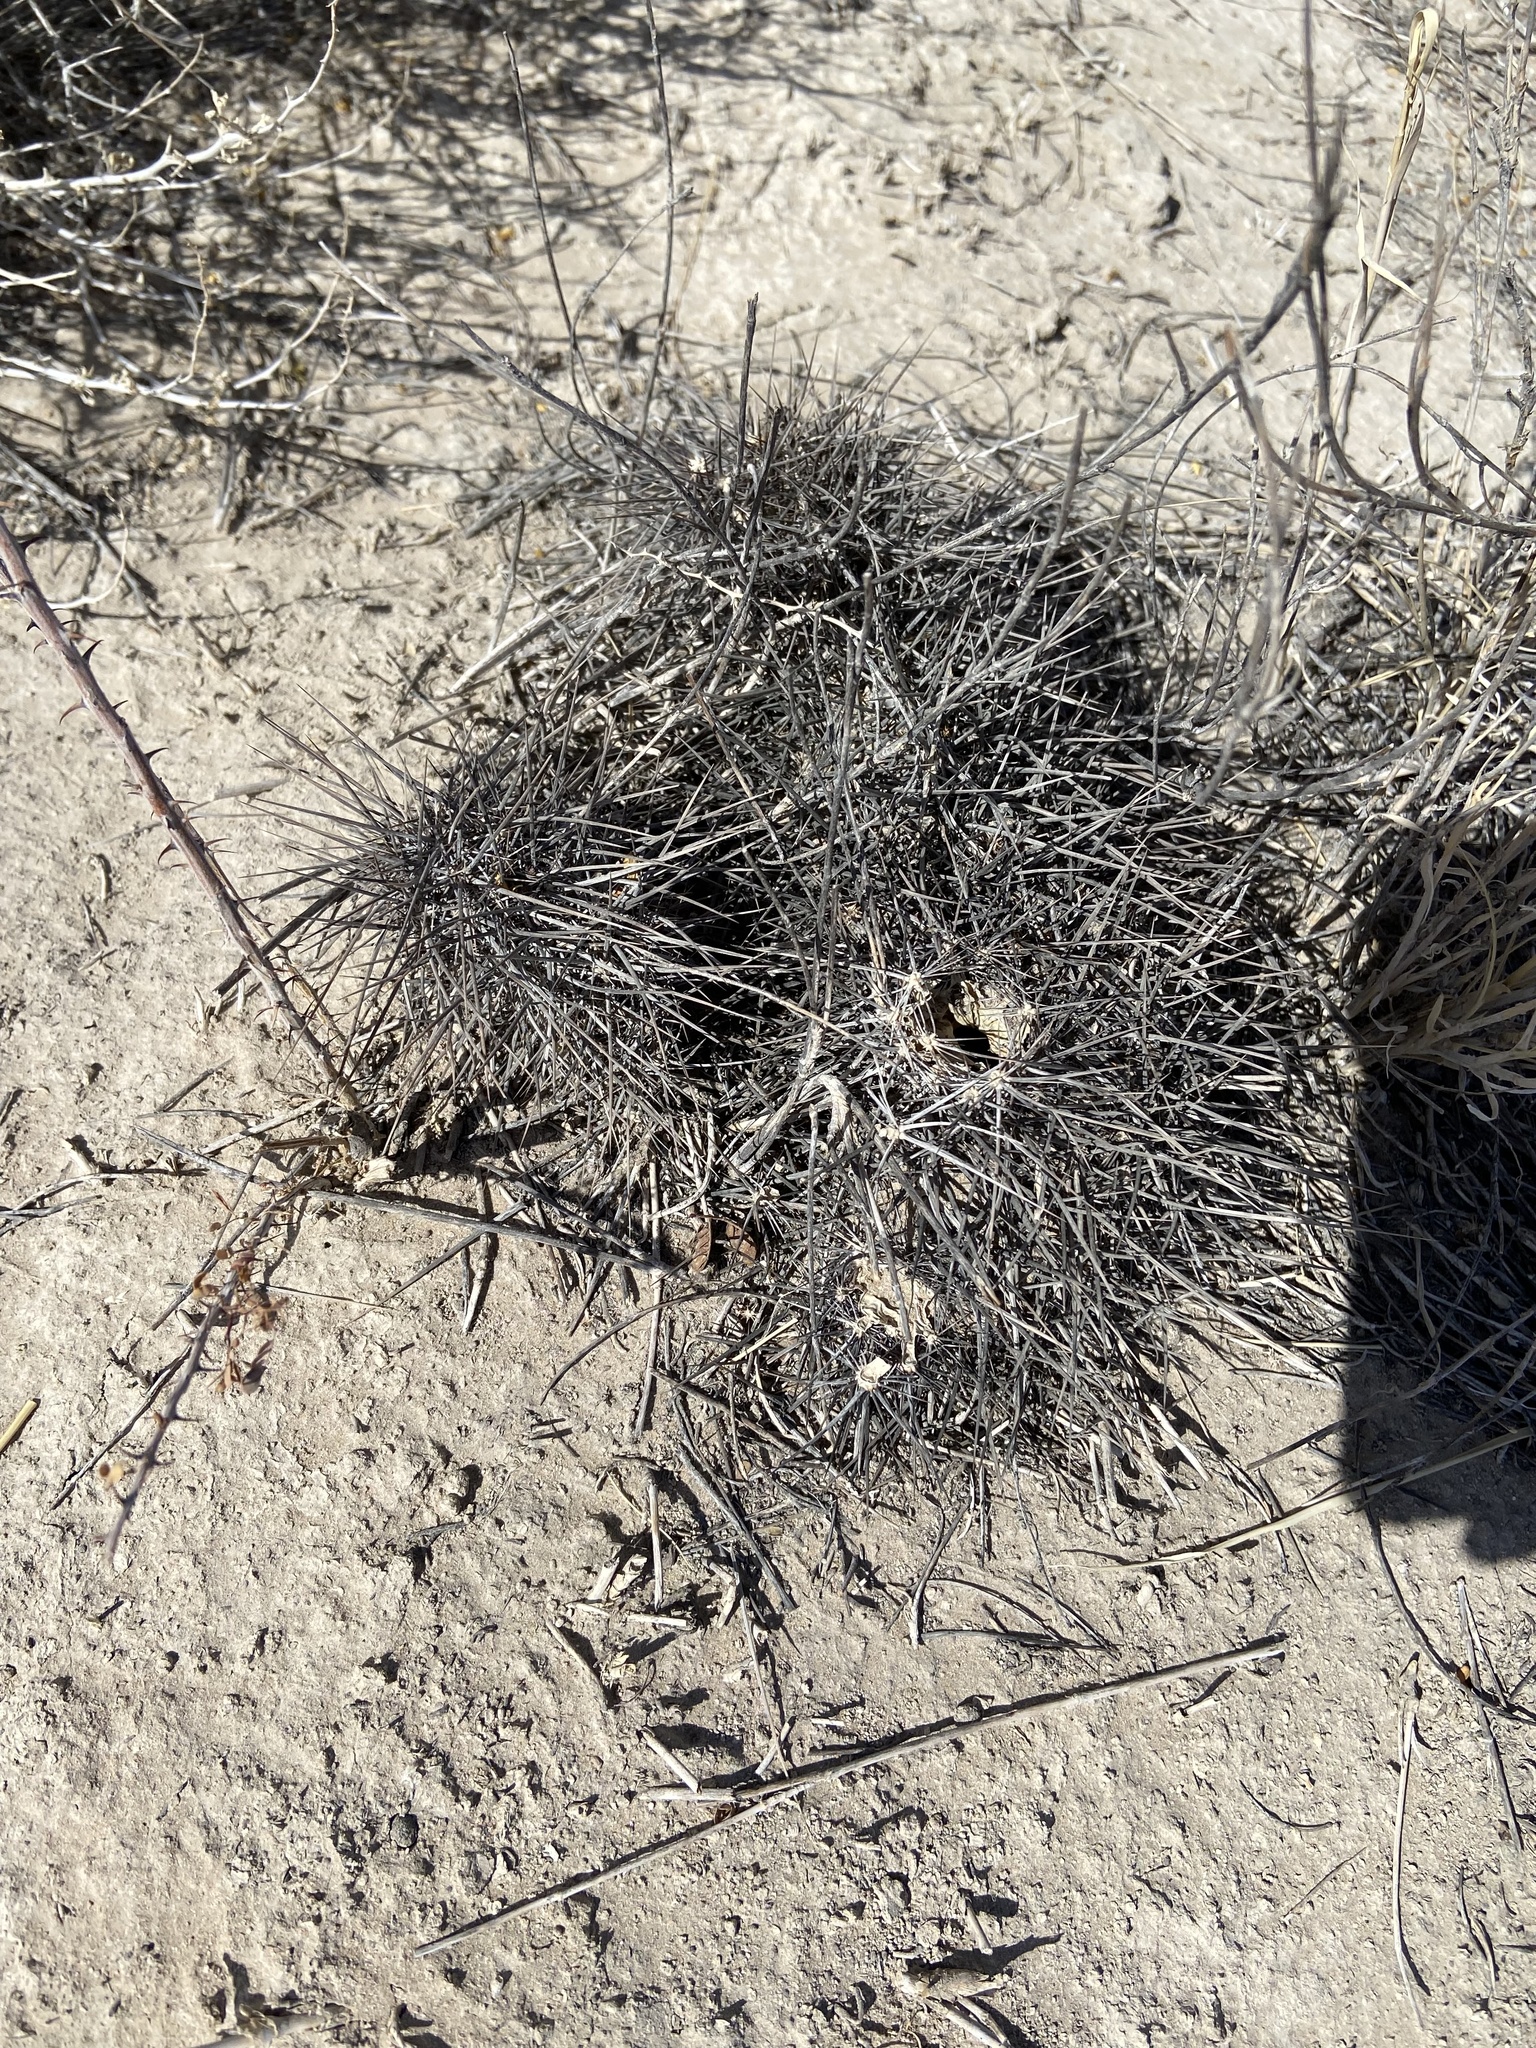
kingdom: Plantae
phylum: Tracheophyta
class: Magnoliopsida
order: Caryophyllales
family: Cactaceae
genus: Echinocereus
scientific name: Echinocereus engelmannii
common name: Engelmann's hedgehog cactus
